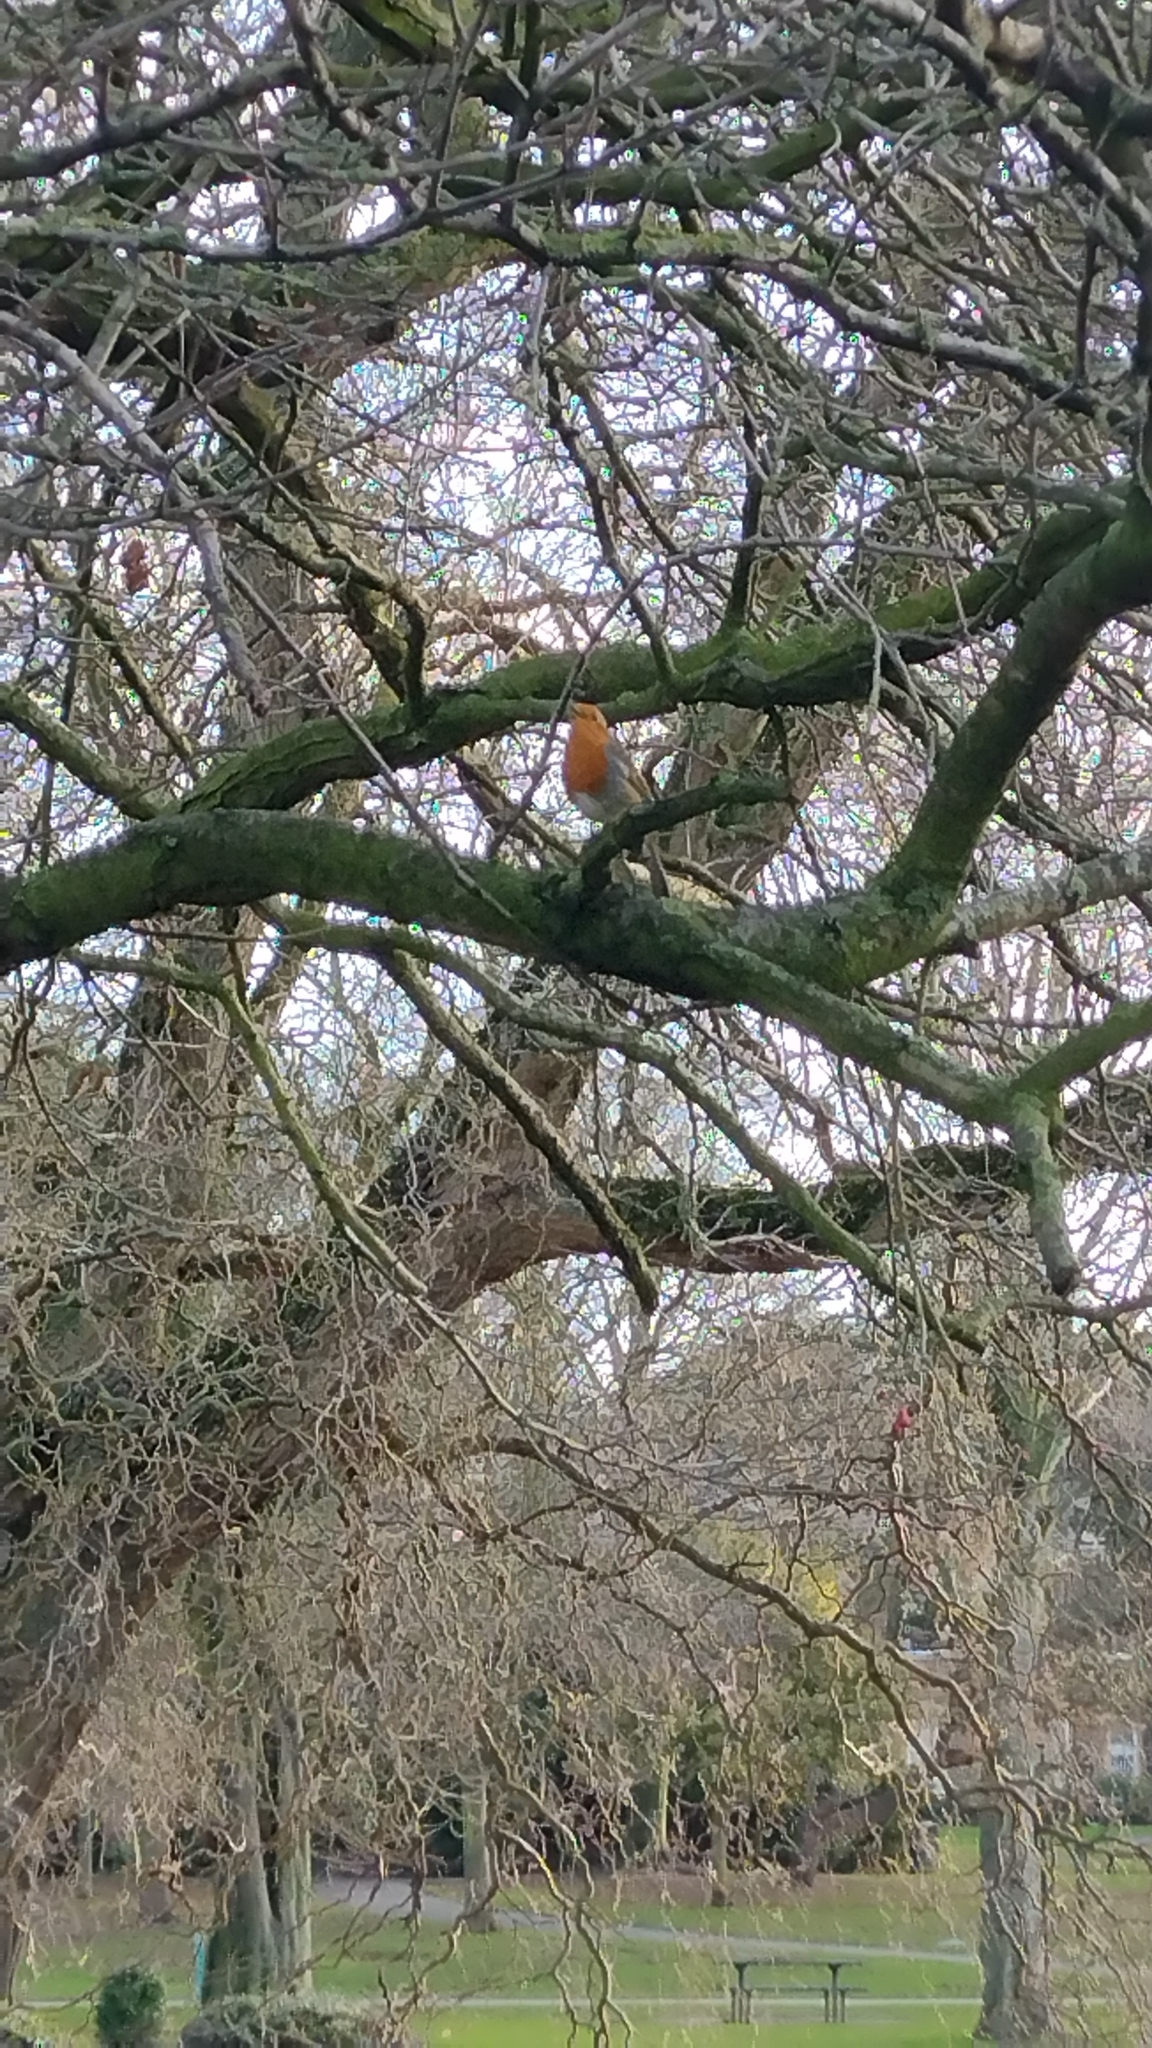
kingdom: Animalia
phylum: Chordata
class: Aves
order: Passeriformes
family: Muscicapidae
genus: Erithacus
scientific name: Erithacus rubecula
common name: European robin
